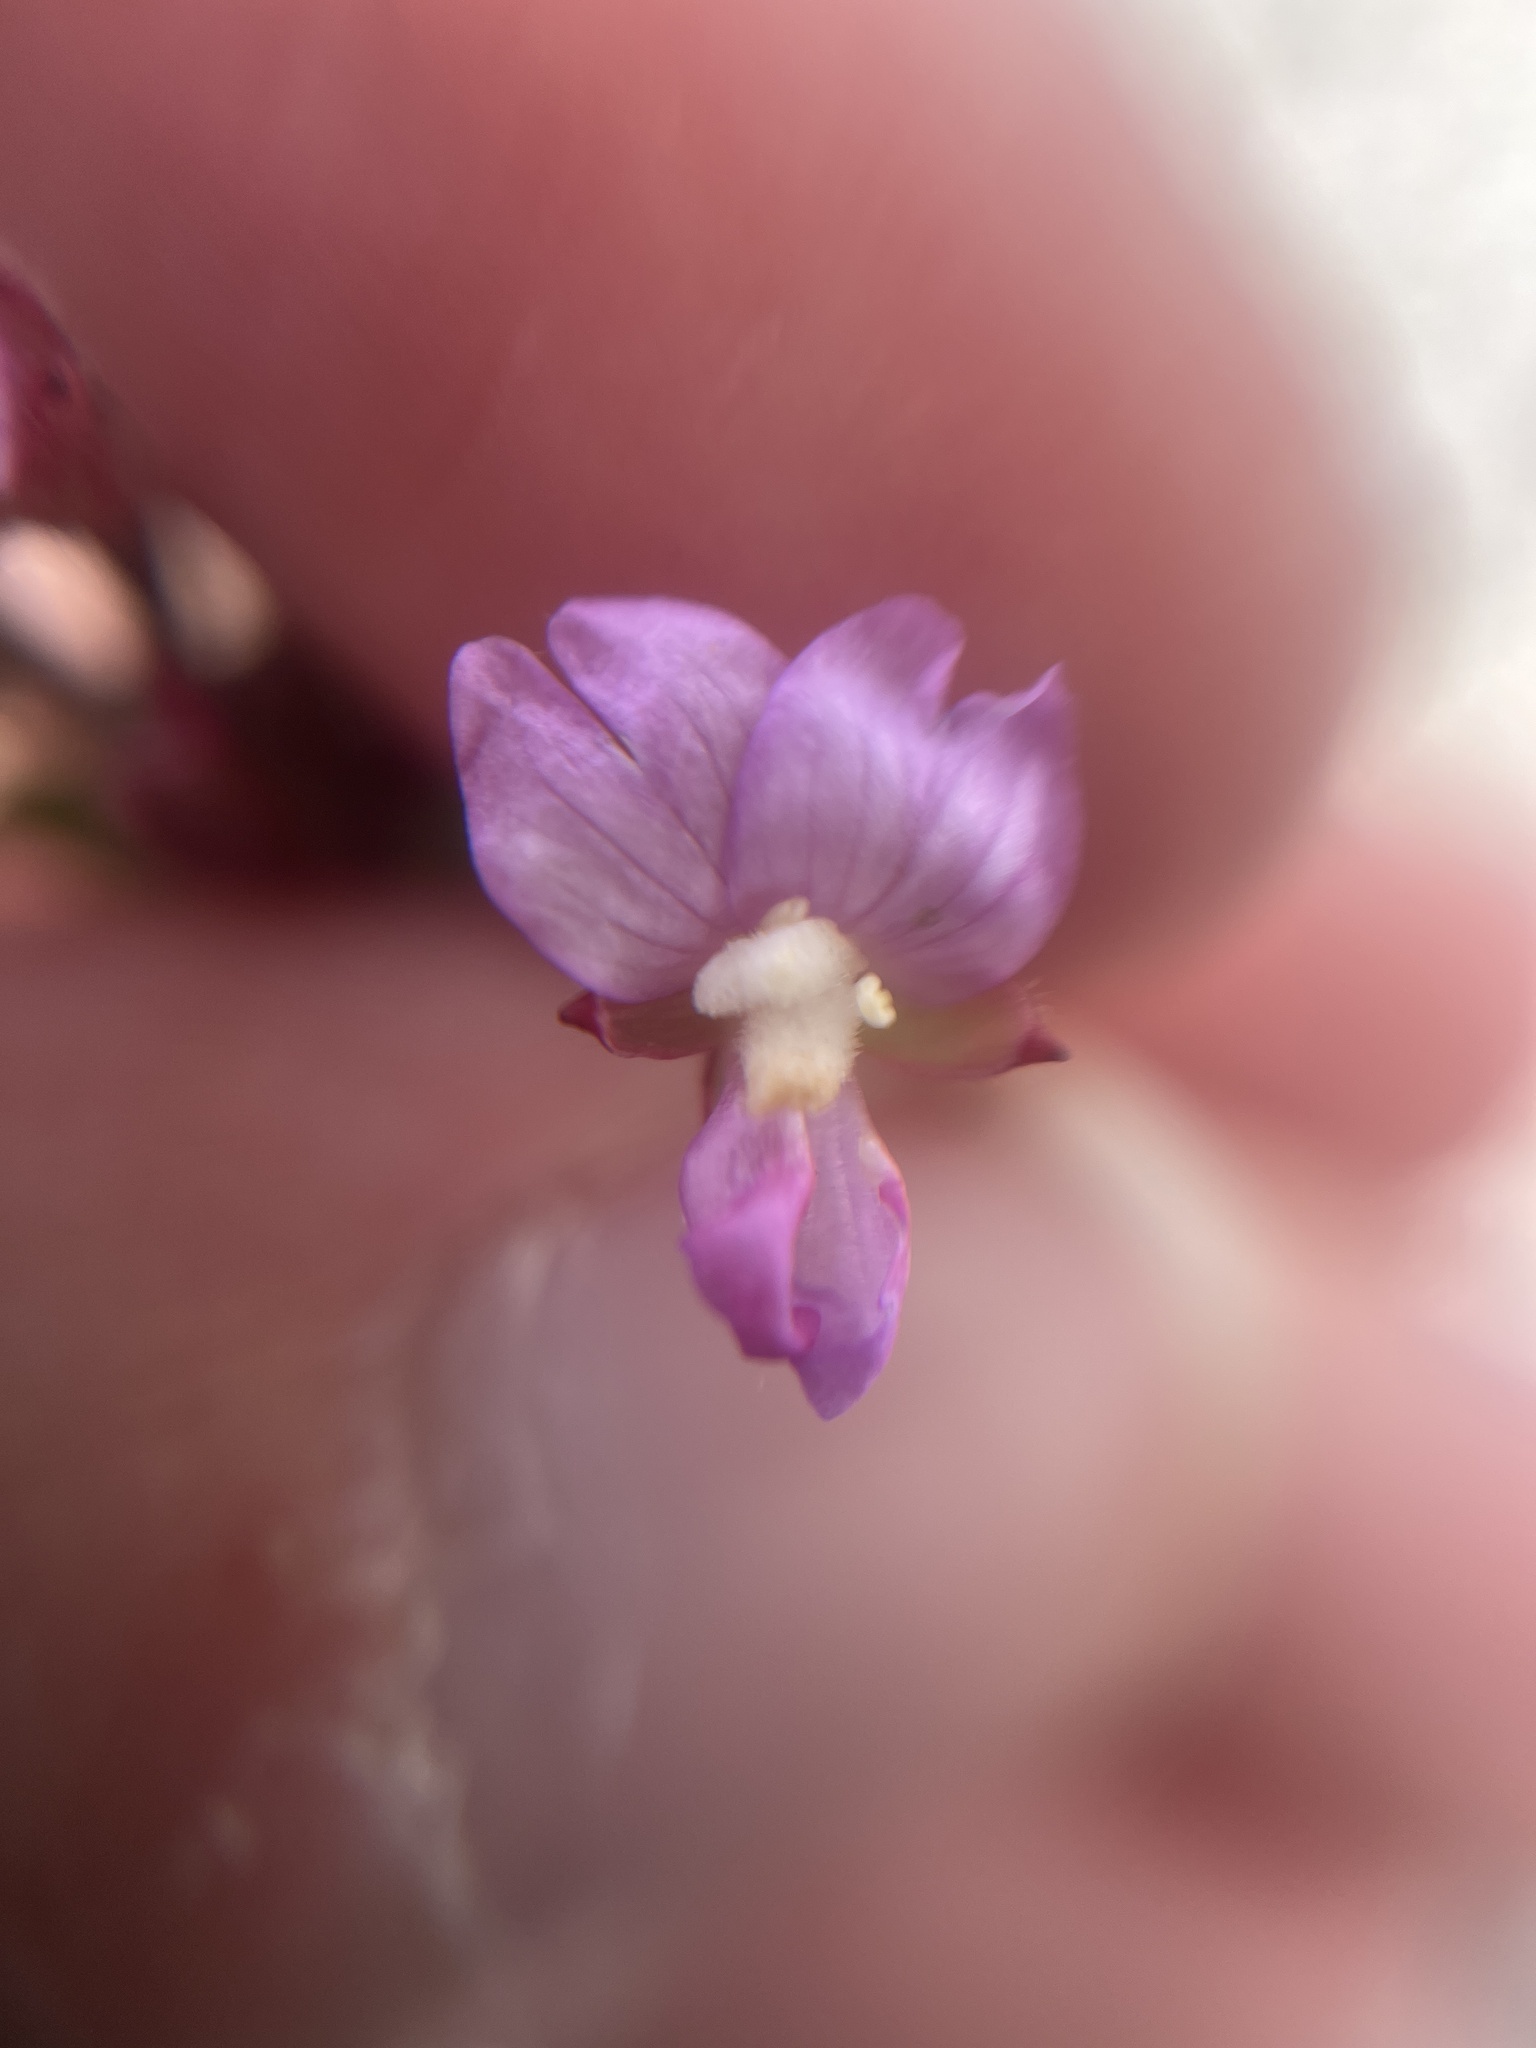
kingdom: Plantae
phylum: Tracheophyta
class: Magnoliopsida
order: Myrtales
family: Onagraceae
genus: Epilobium
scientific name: Epilobium parviflorum
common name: Hoary willowherb
